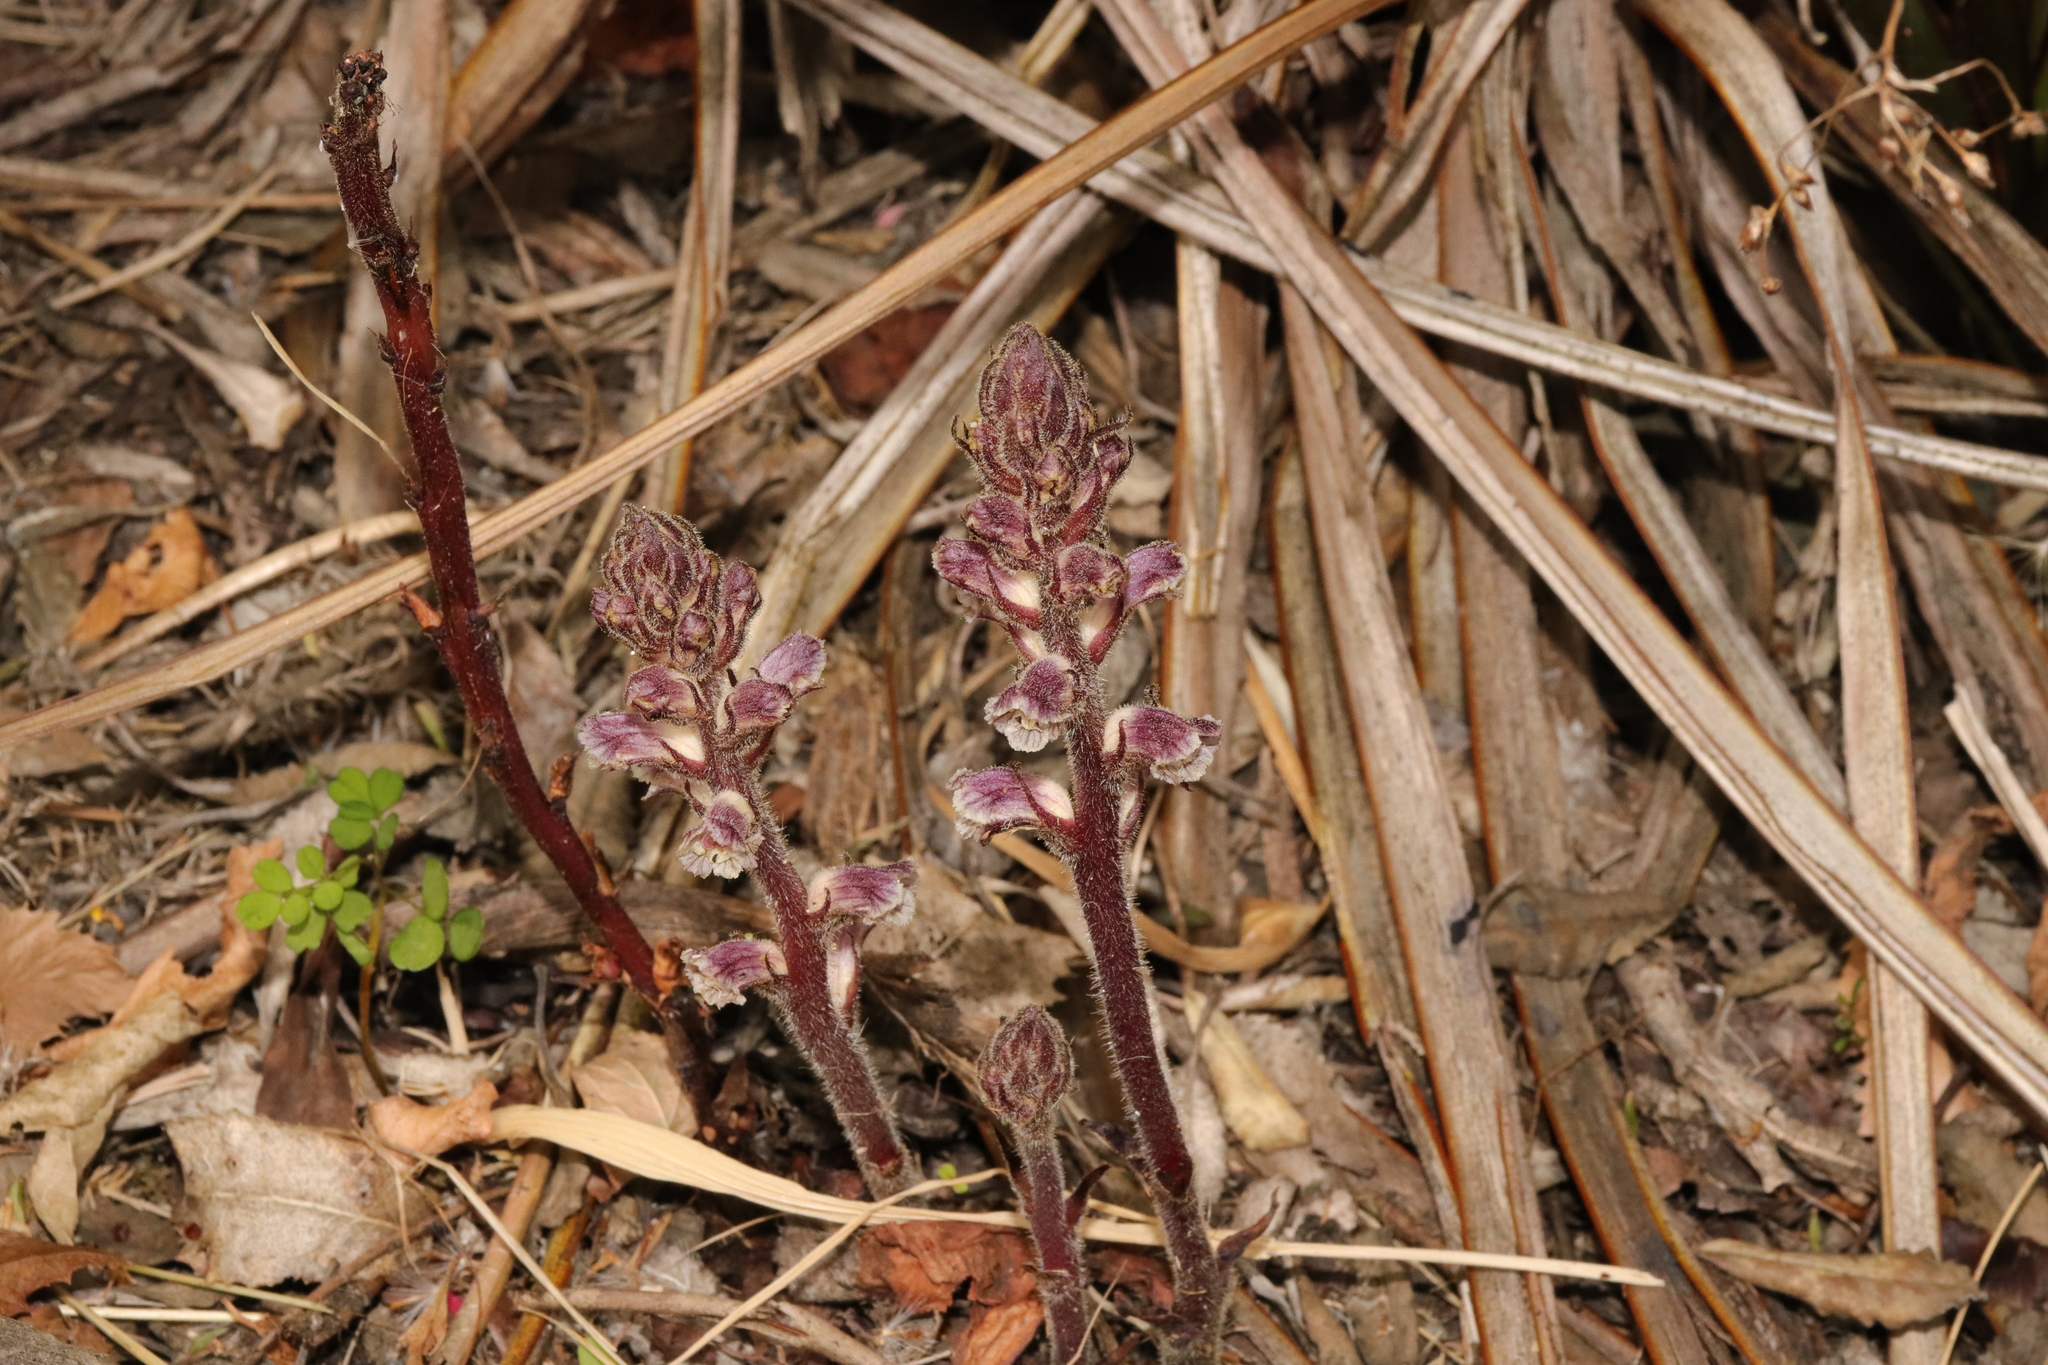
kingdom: Plantae
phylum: Tracheophyta
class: Magnoliopsida
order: Lamiales
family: Orobanchaceae
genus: Orobanche
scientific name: Orobanche minor
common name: Common broomrape
